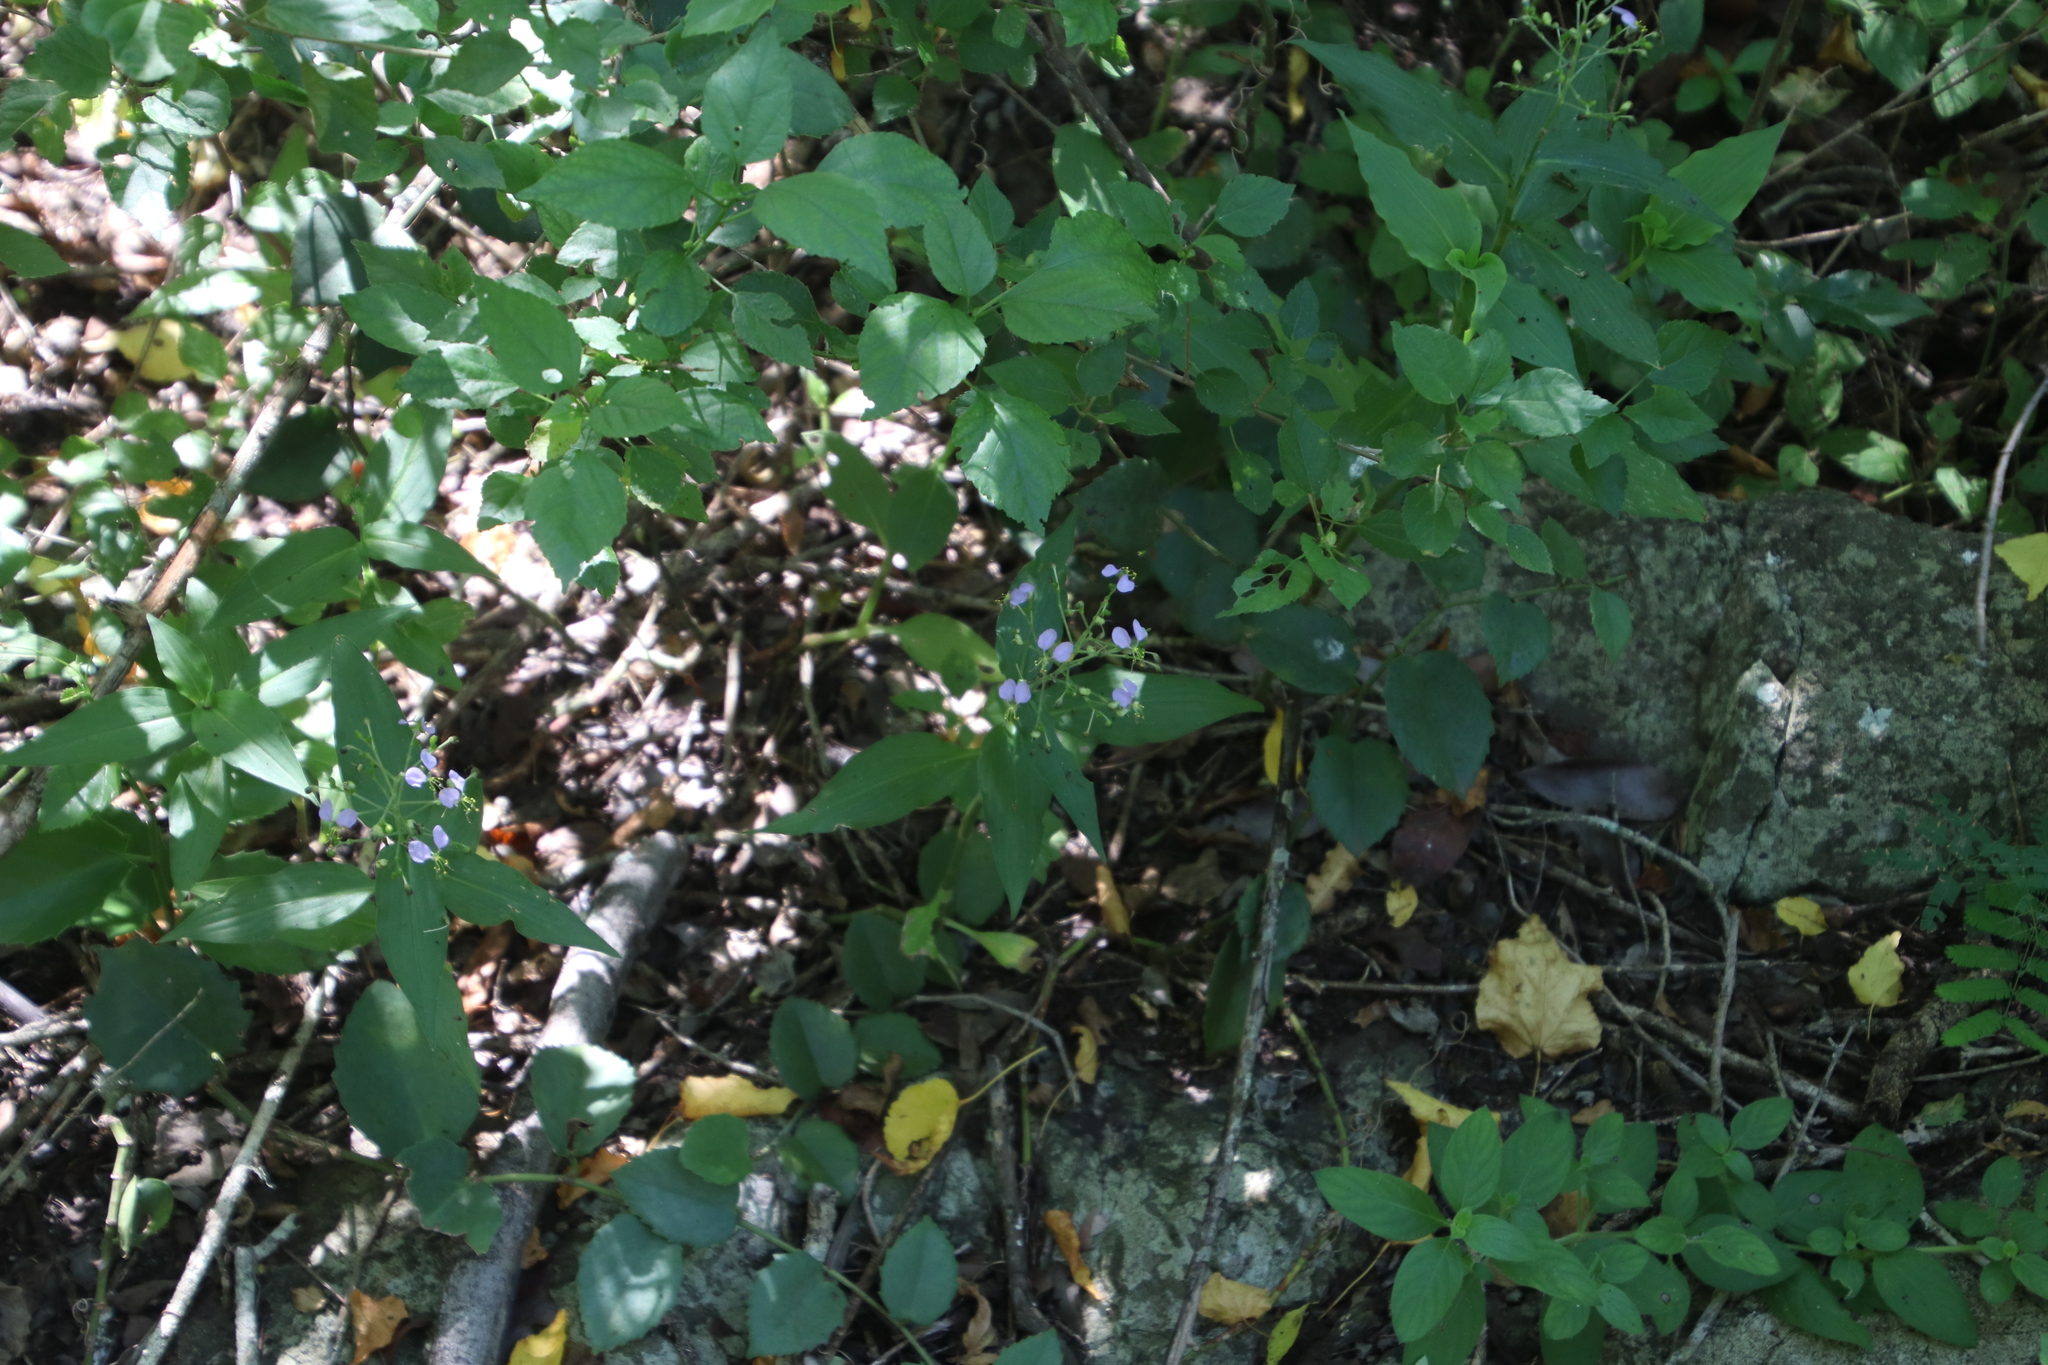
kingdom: Plantae
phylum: Tracheophyta
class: Liliopsida
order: Commelinales
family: Commelinaceae
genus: Aneilema
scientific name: Aneilema dregeanum
